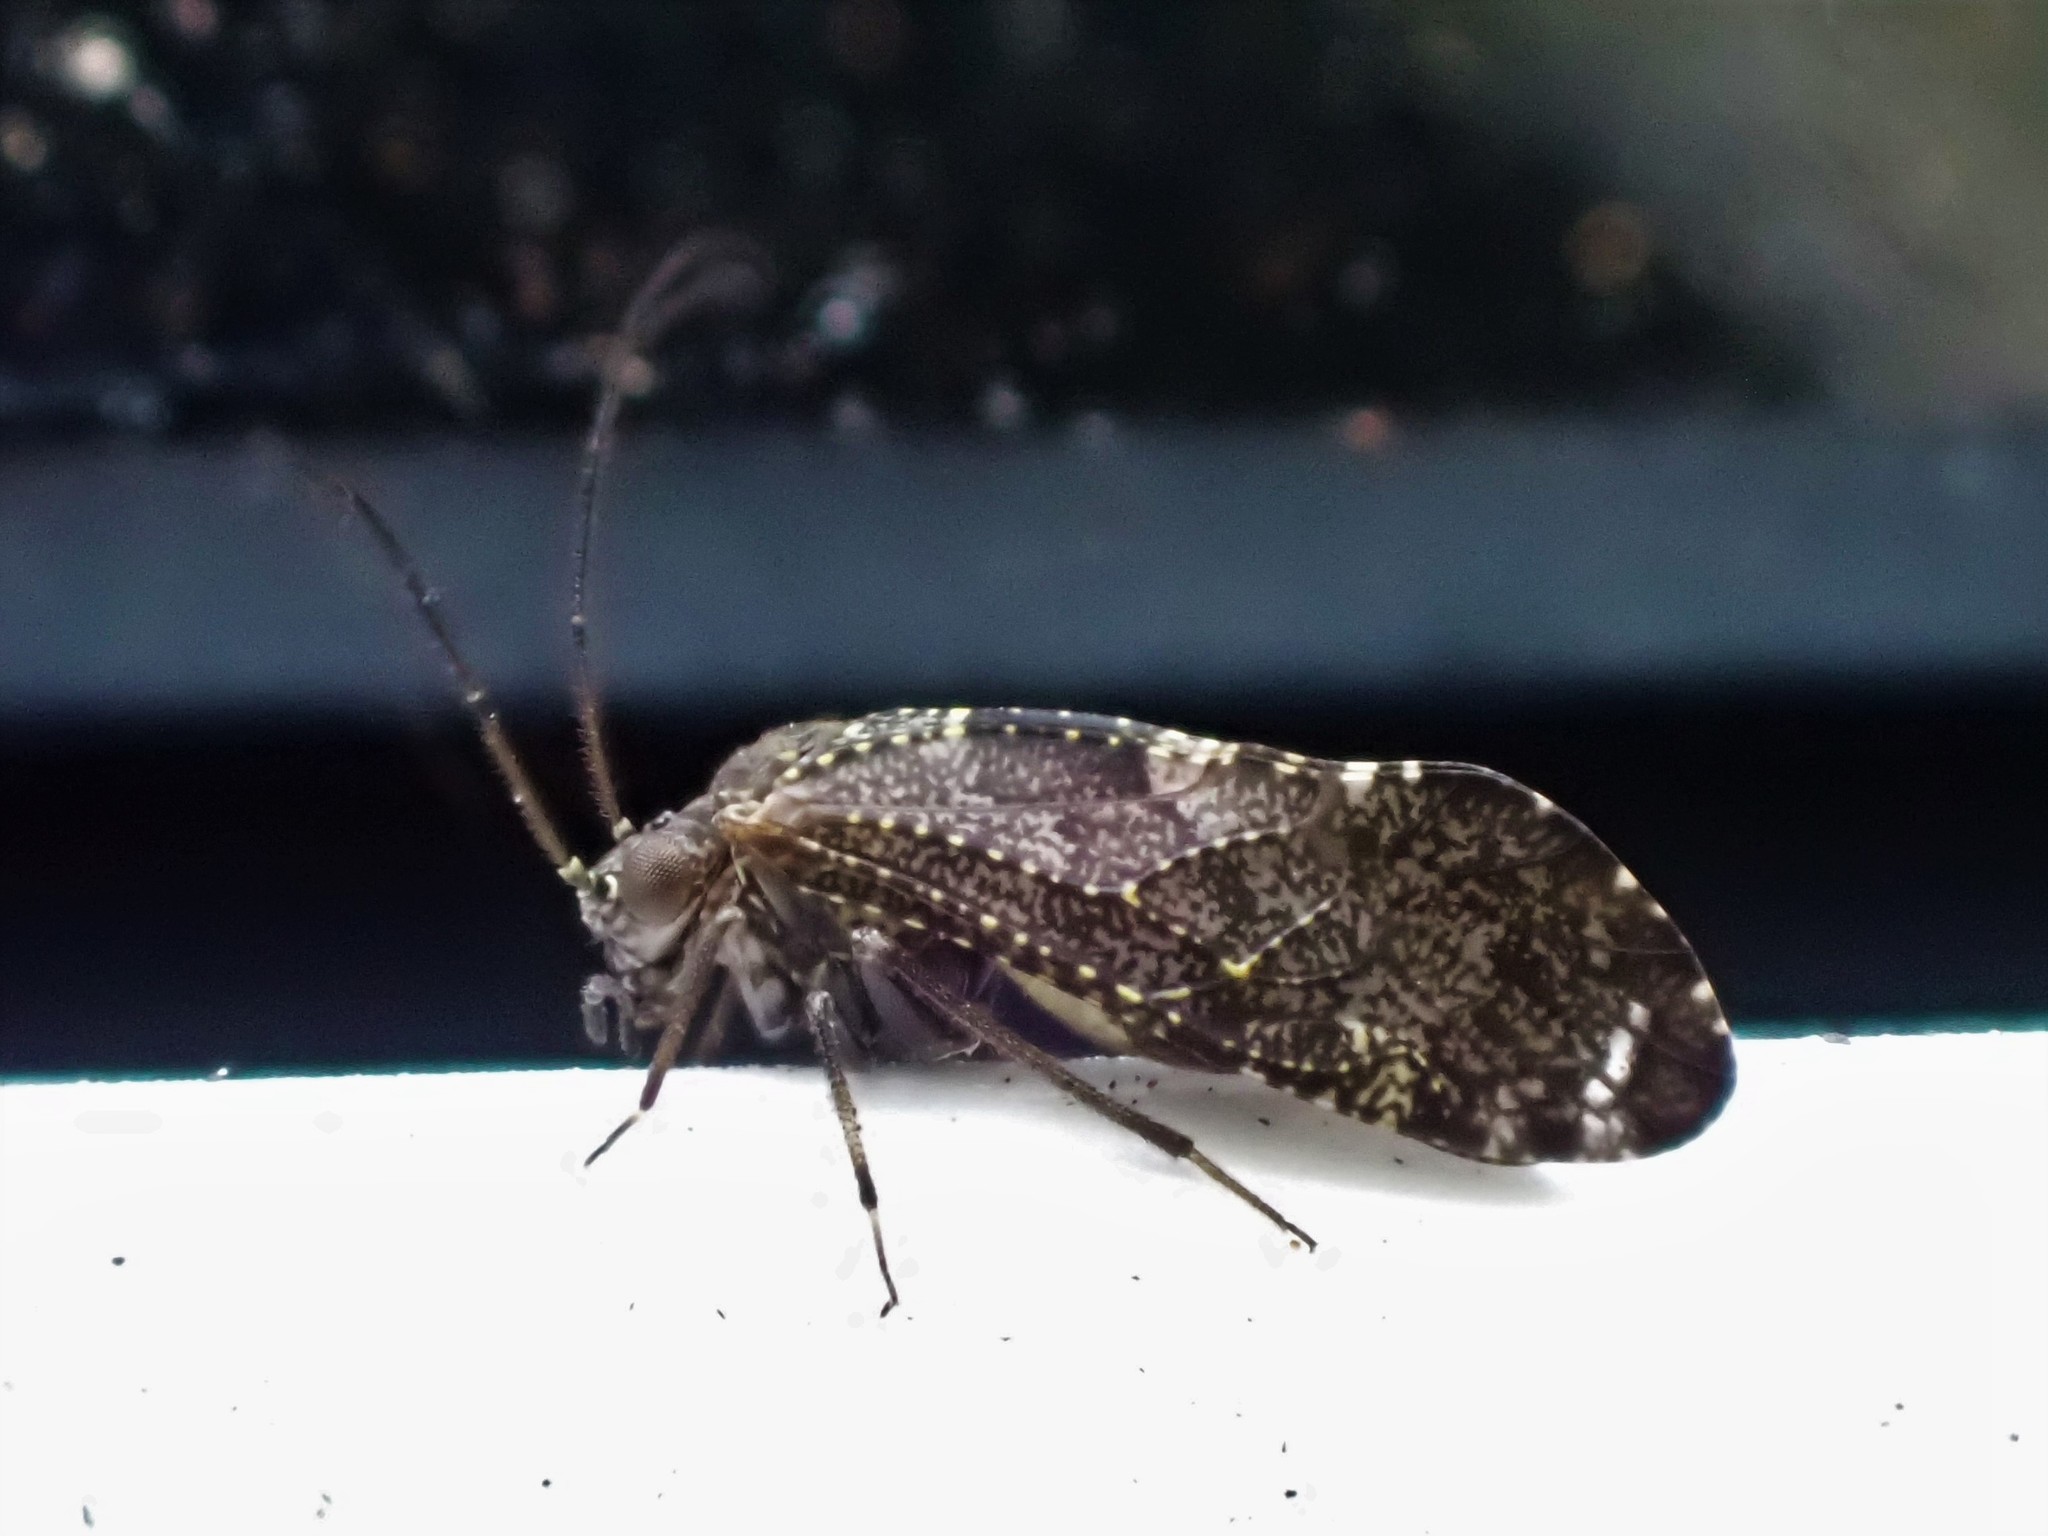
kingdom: Animalia
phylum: Arthropoda
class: Insecta
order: Psocodea
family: Myopsocidae
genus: Nimbopsocus
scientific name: Nimbopsocus australis
